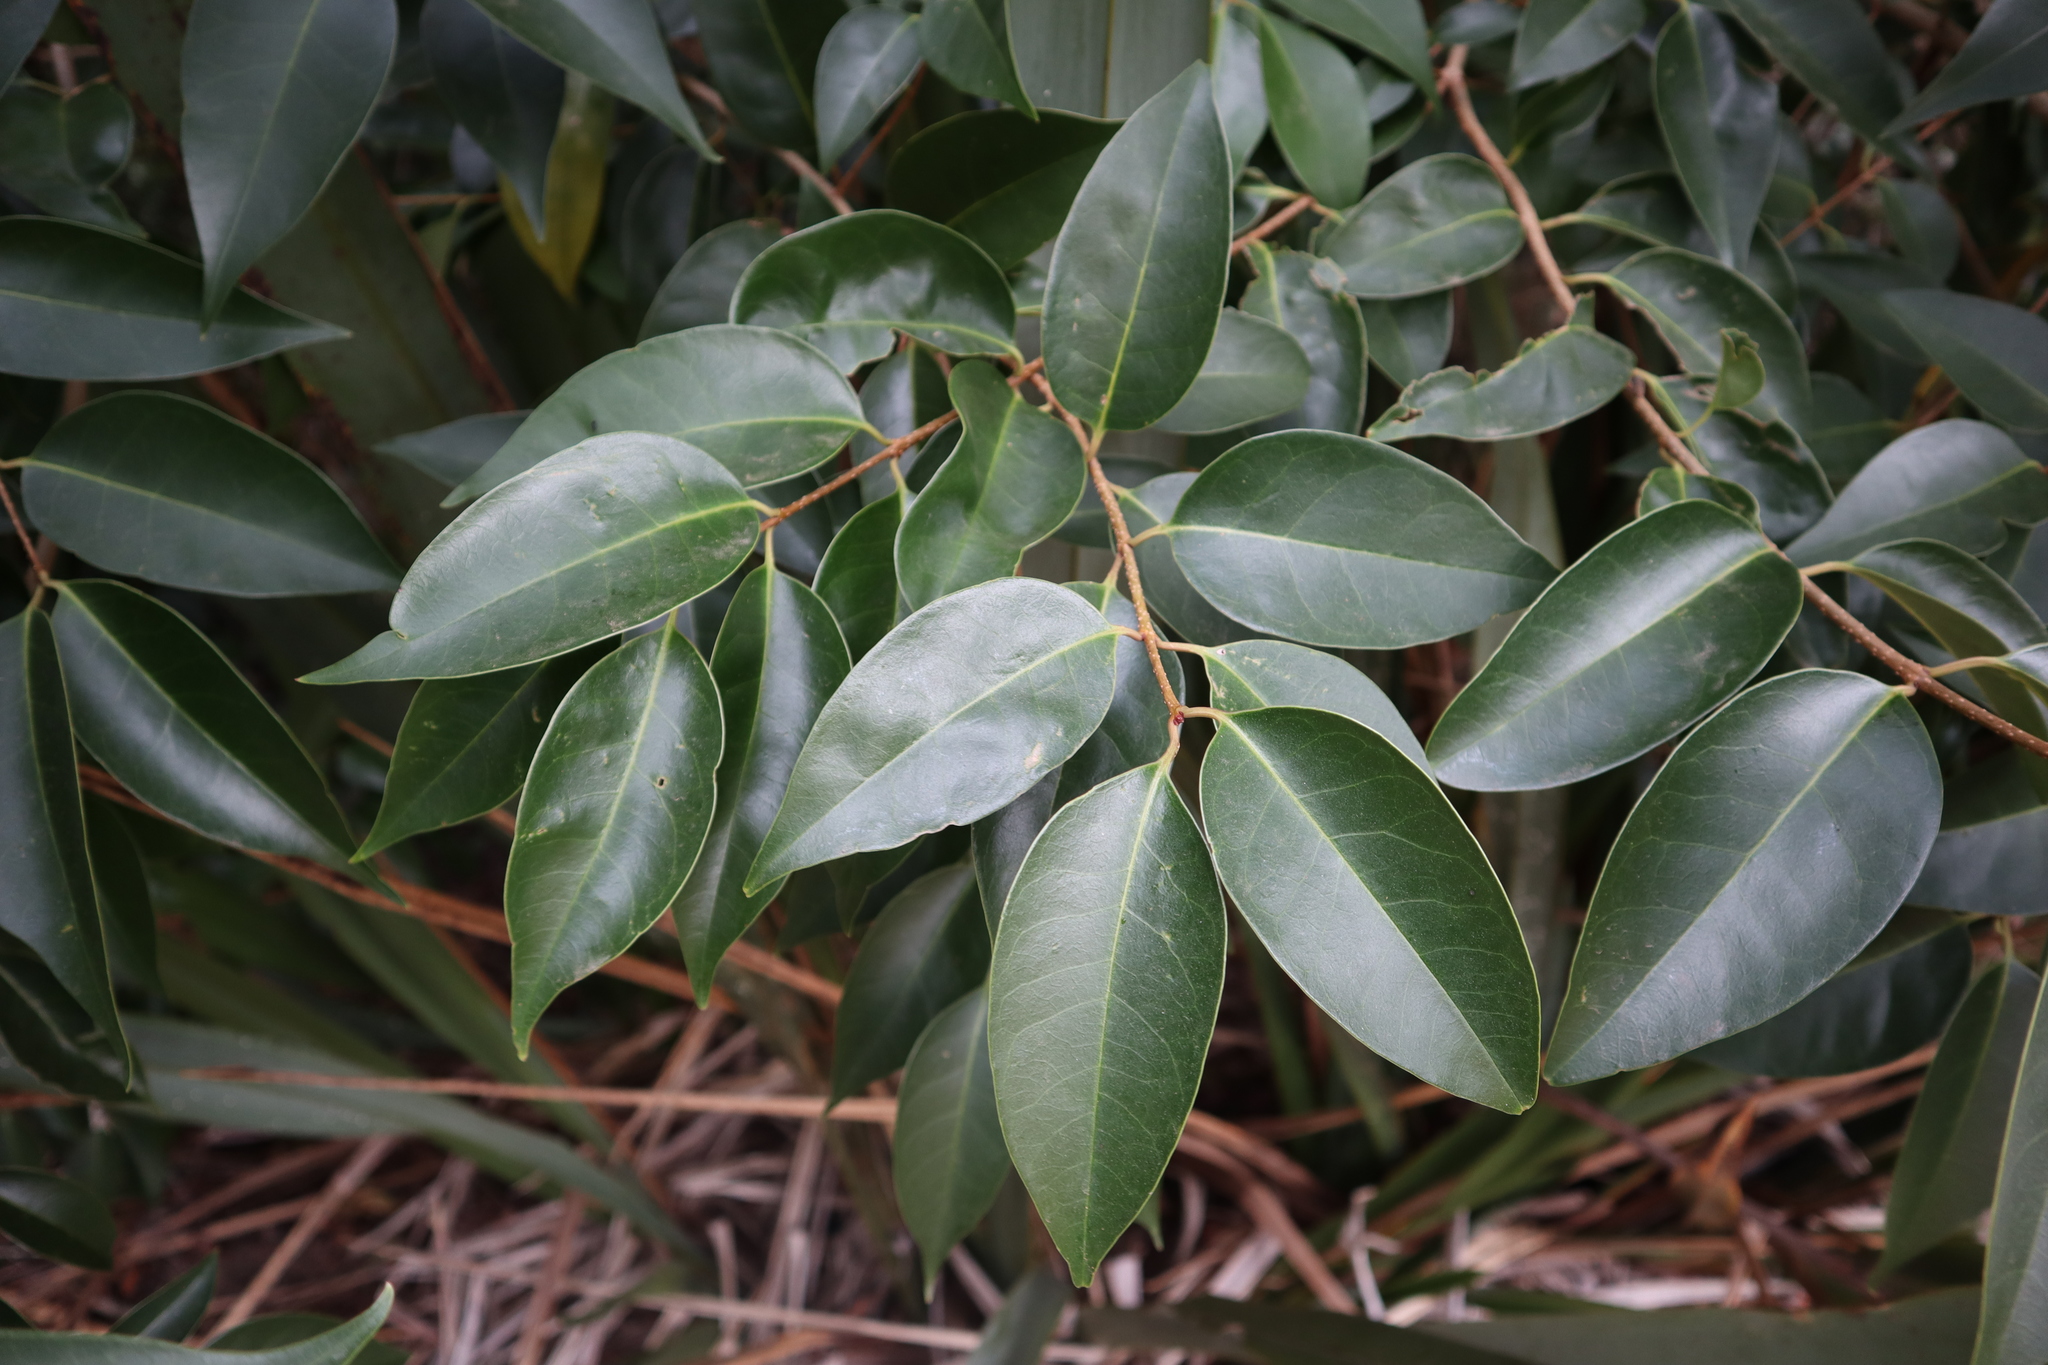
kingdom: Plantae
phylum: Tracheophyta
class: Magnoliopsida
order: Lamiales
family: Oleaceae
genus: Ligustrum
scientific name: Ligustrum lucidum
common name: Glossy privet
